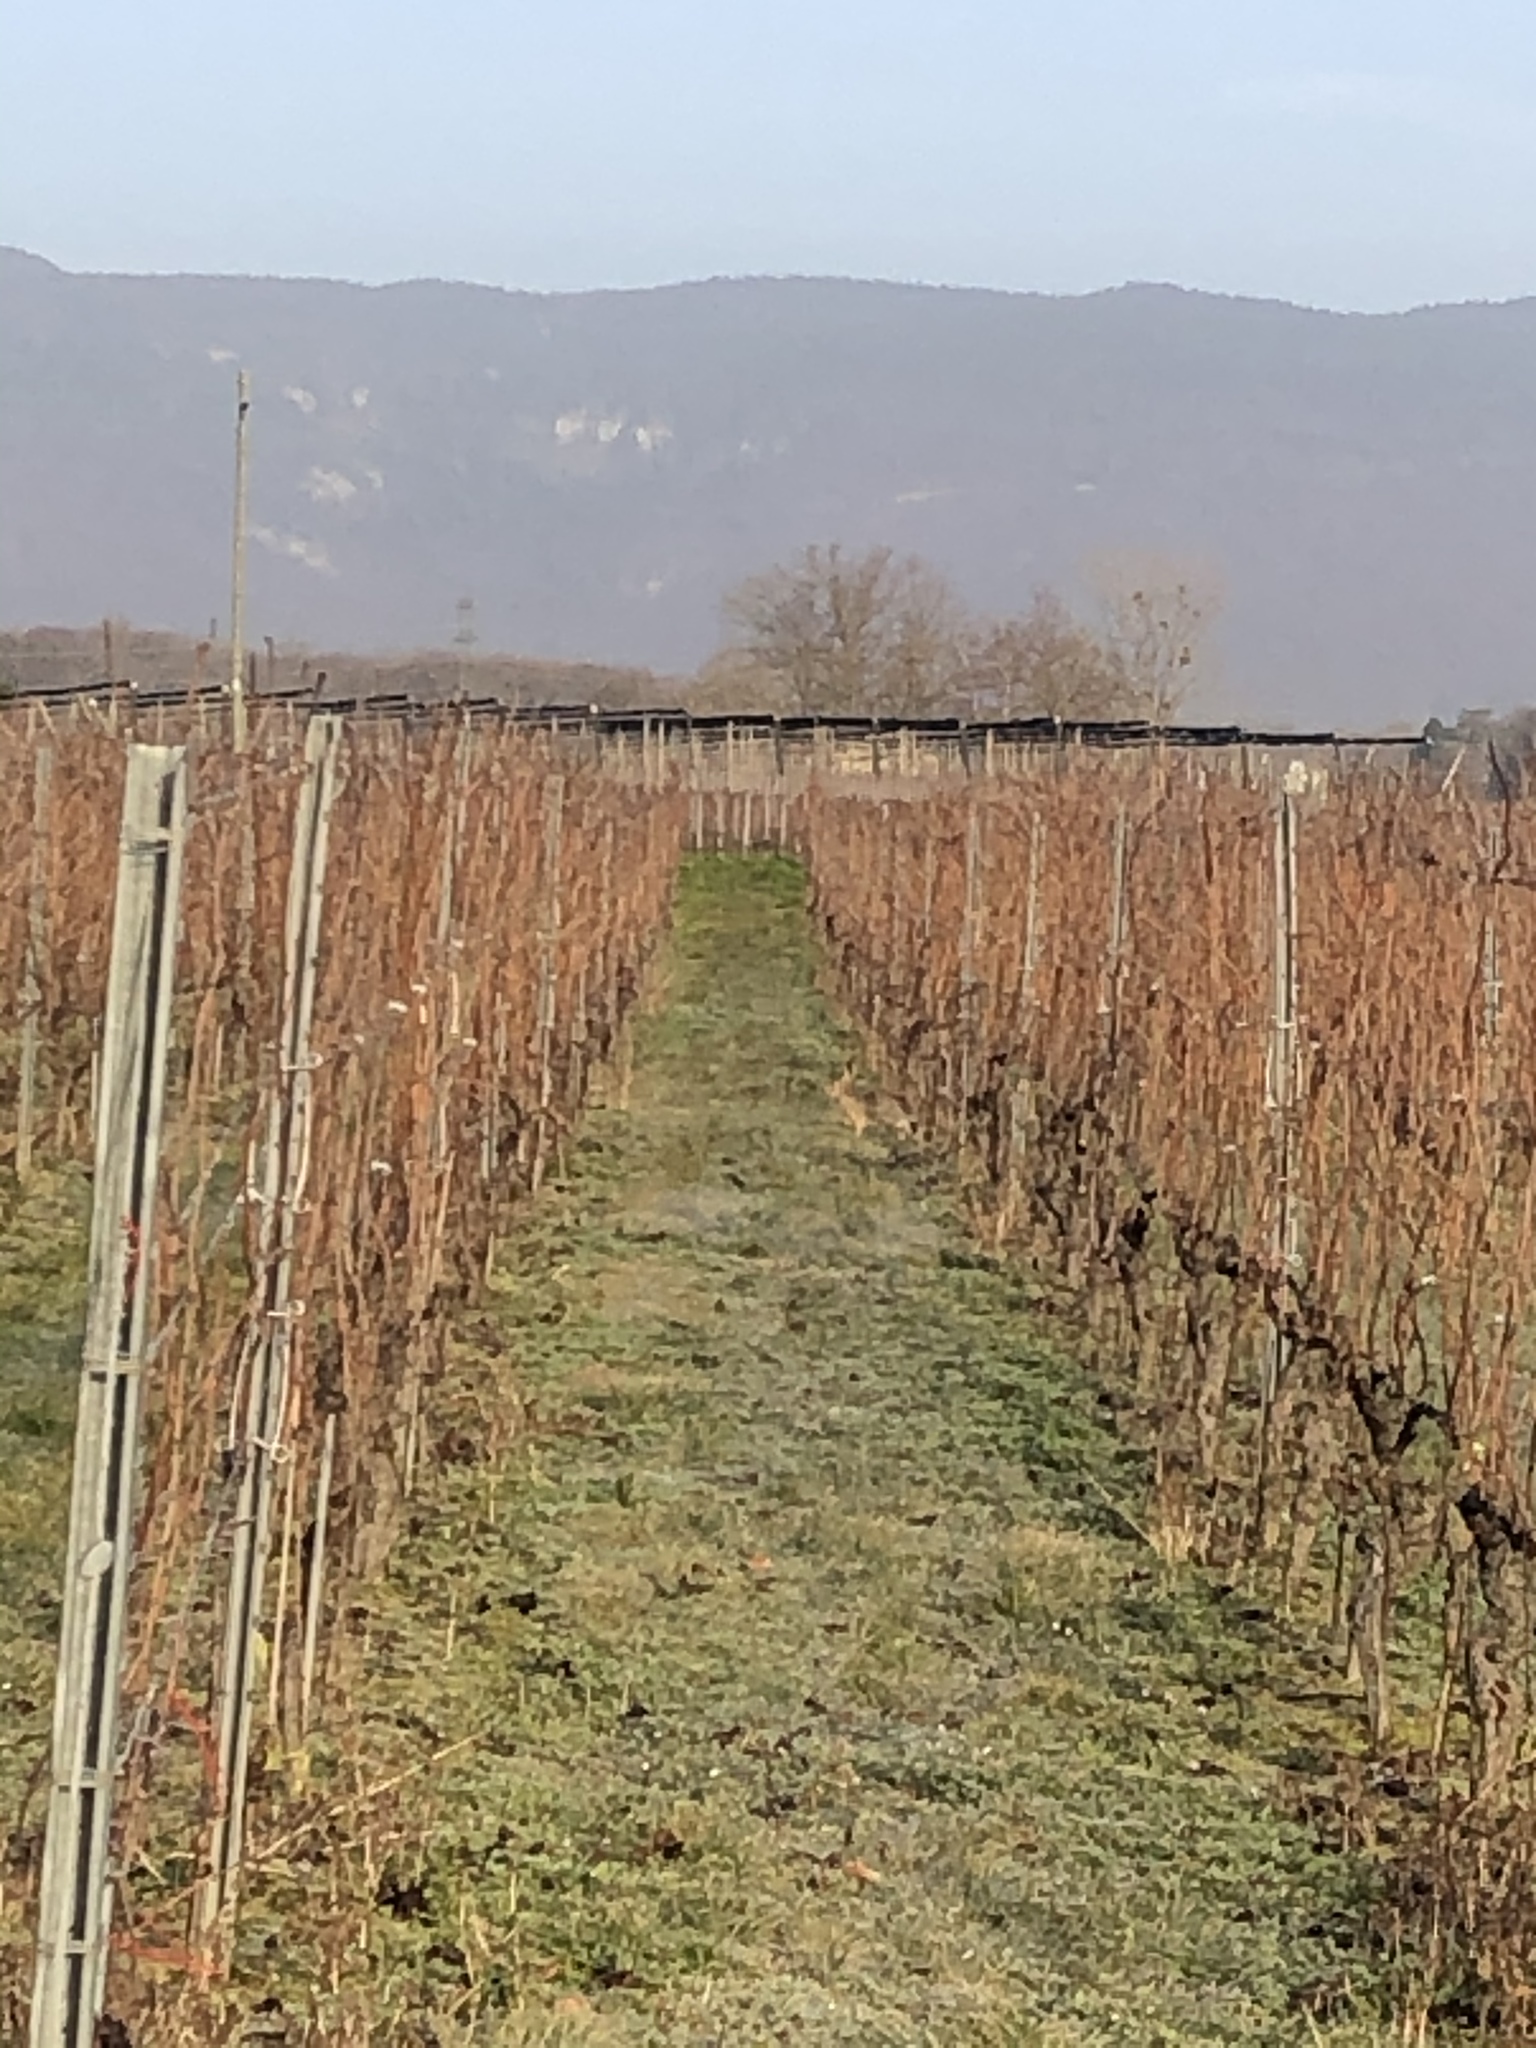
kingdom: Animalia
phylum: Chordata
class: Mammalia
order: Lagomorpha
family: Leporidae
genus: Lepus
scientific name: Lepus europaeus
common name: European hare
